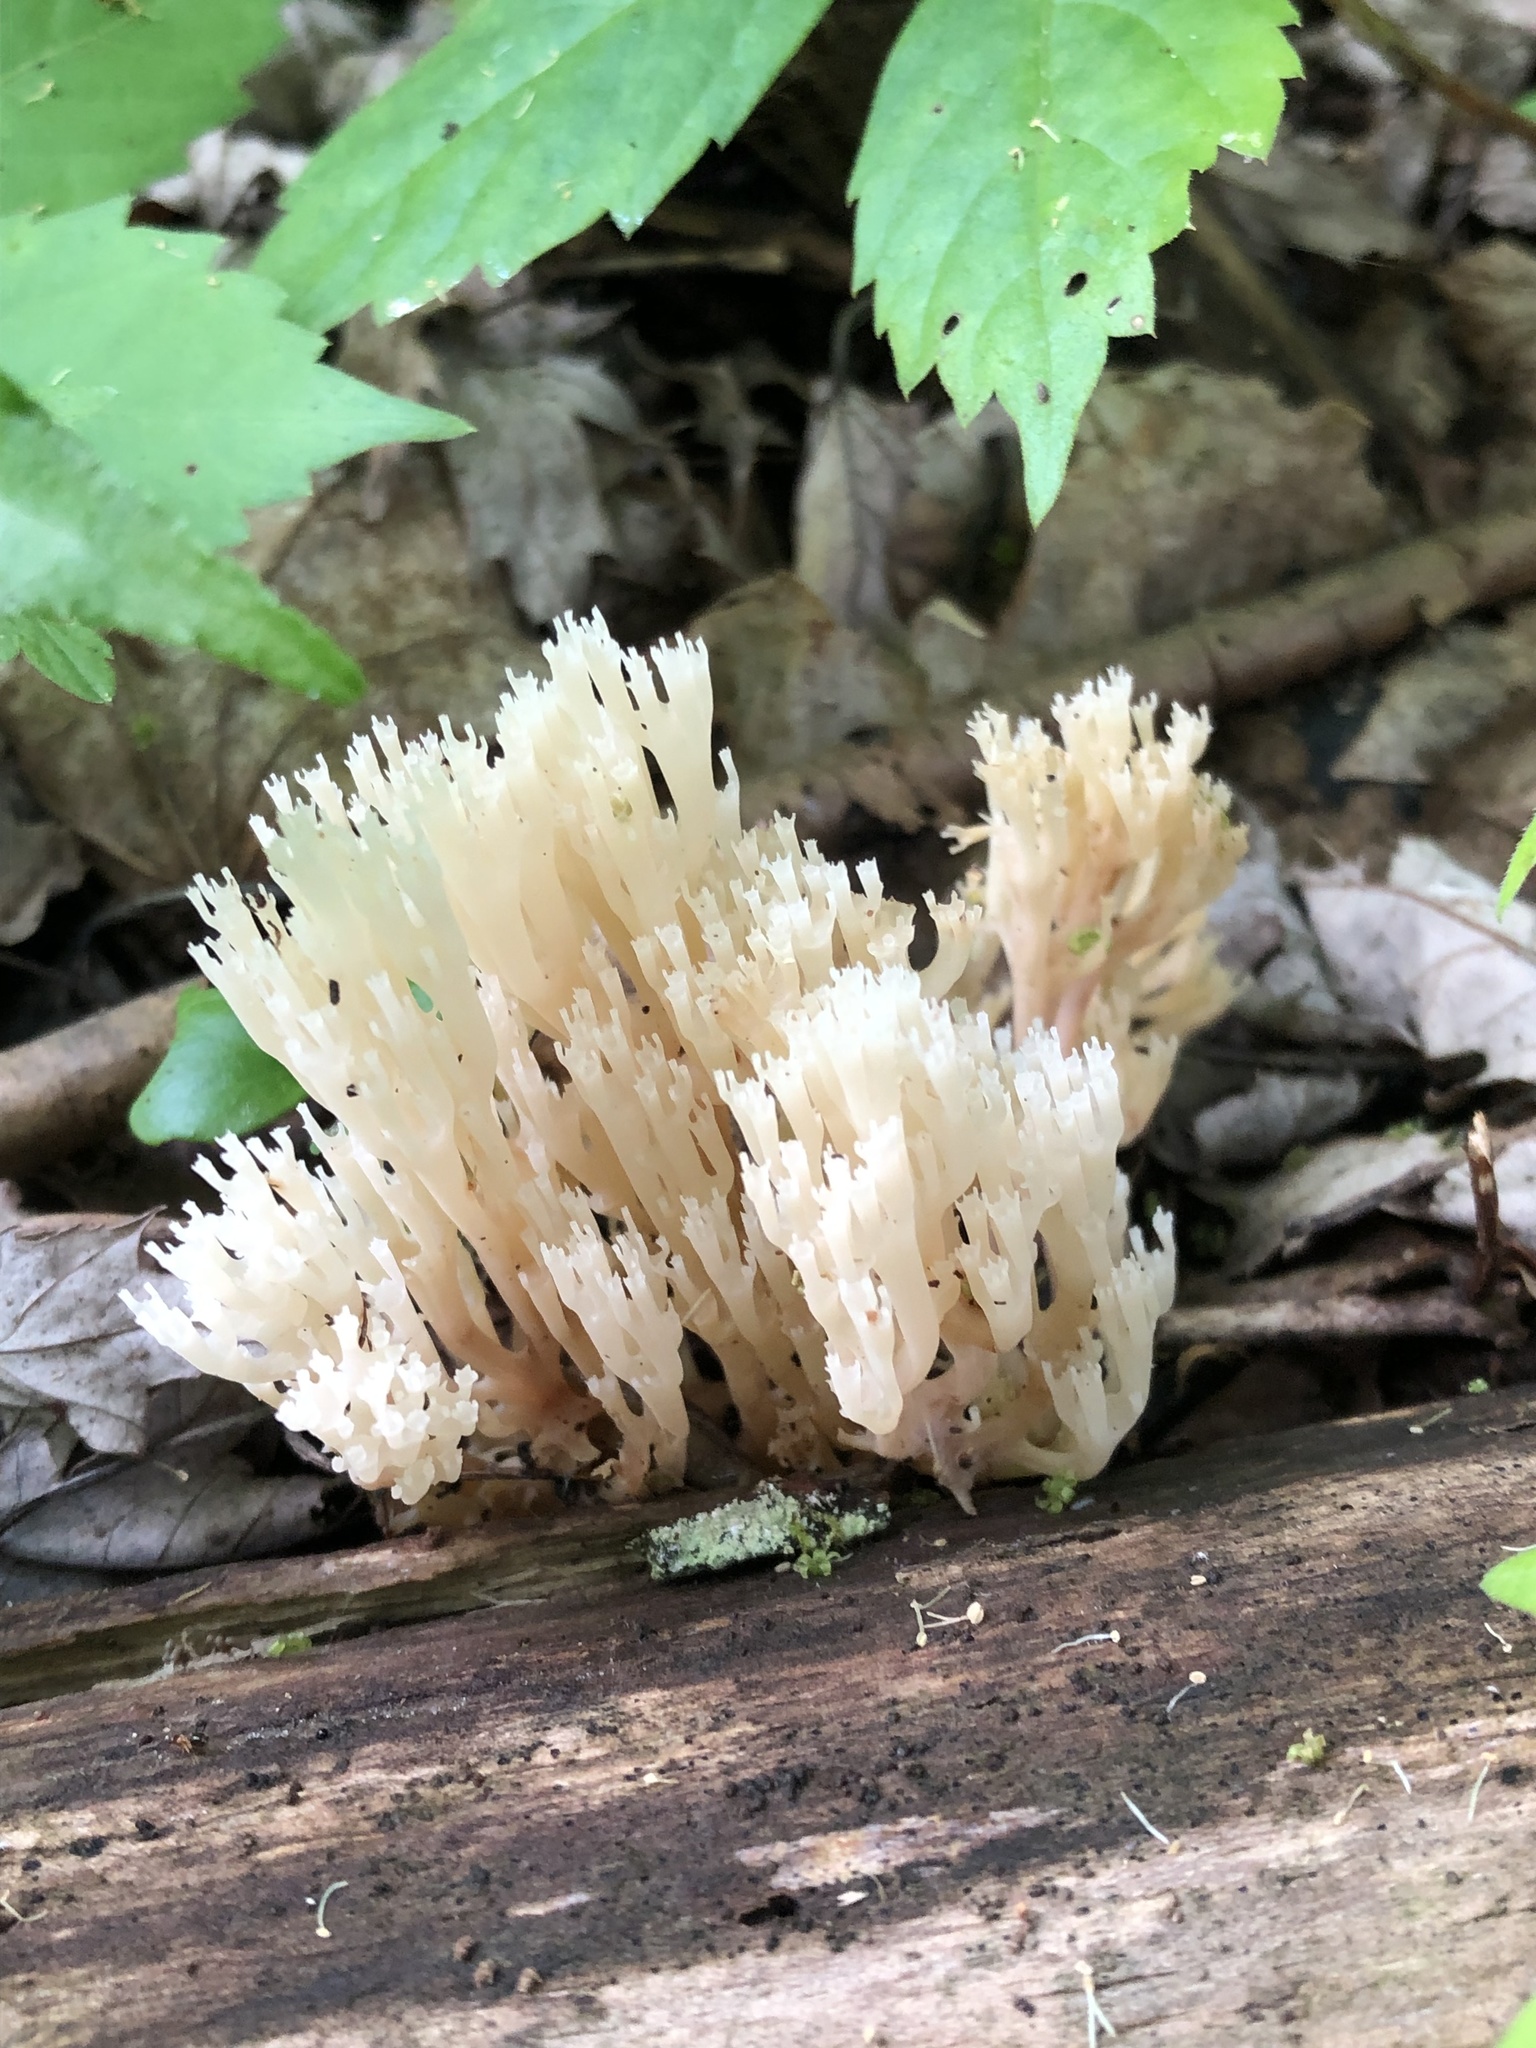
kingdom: Fungi
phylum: Basidiomycota
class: Agaricomycetes
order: Russulales
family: Auriscalpiaceae
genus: Artomyces
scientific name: Artomyces pyxidatus
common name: Crown-tipped coral fungus
